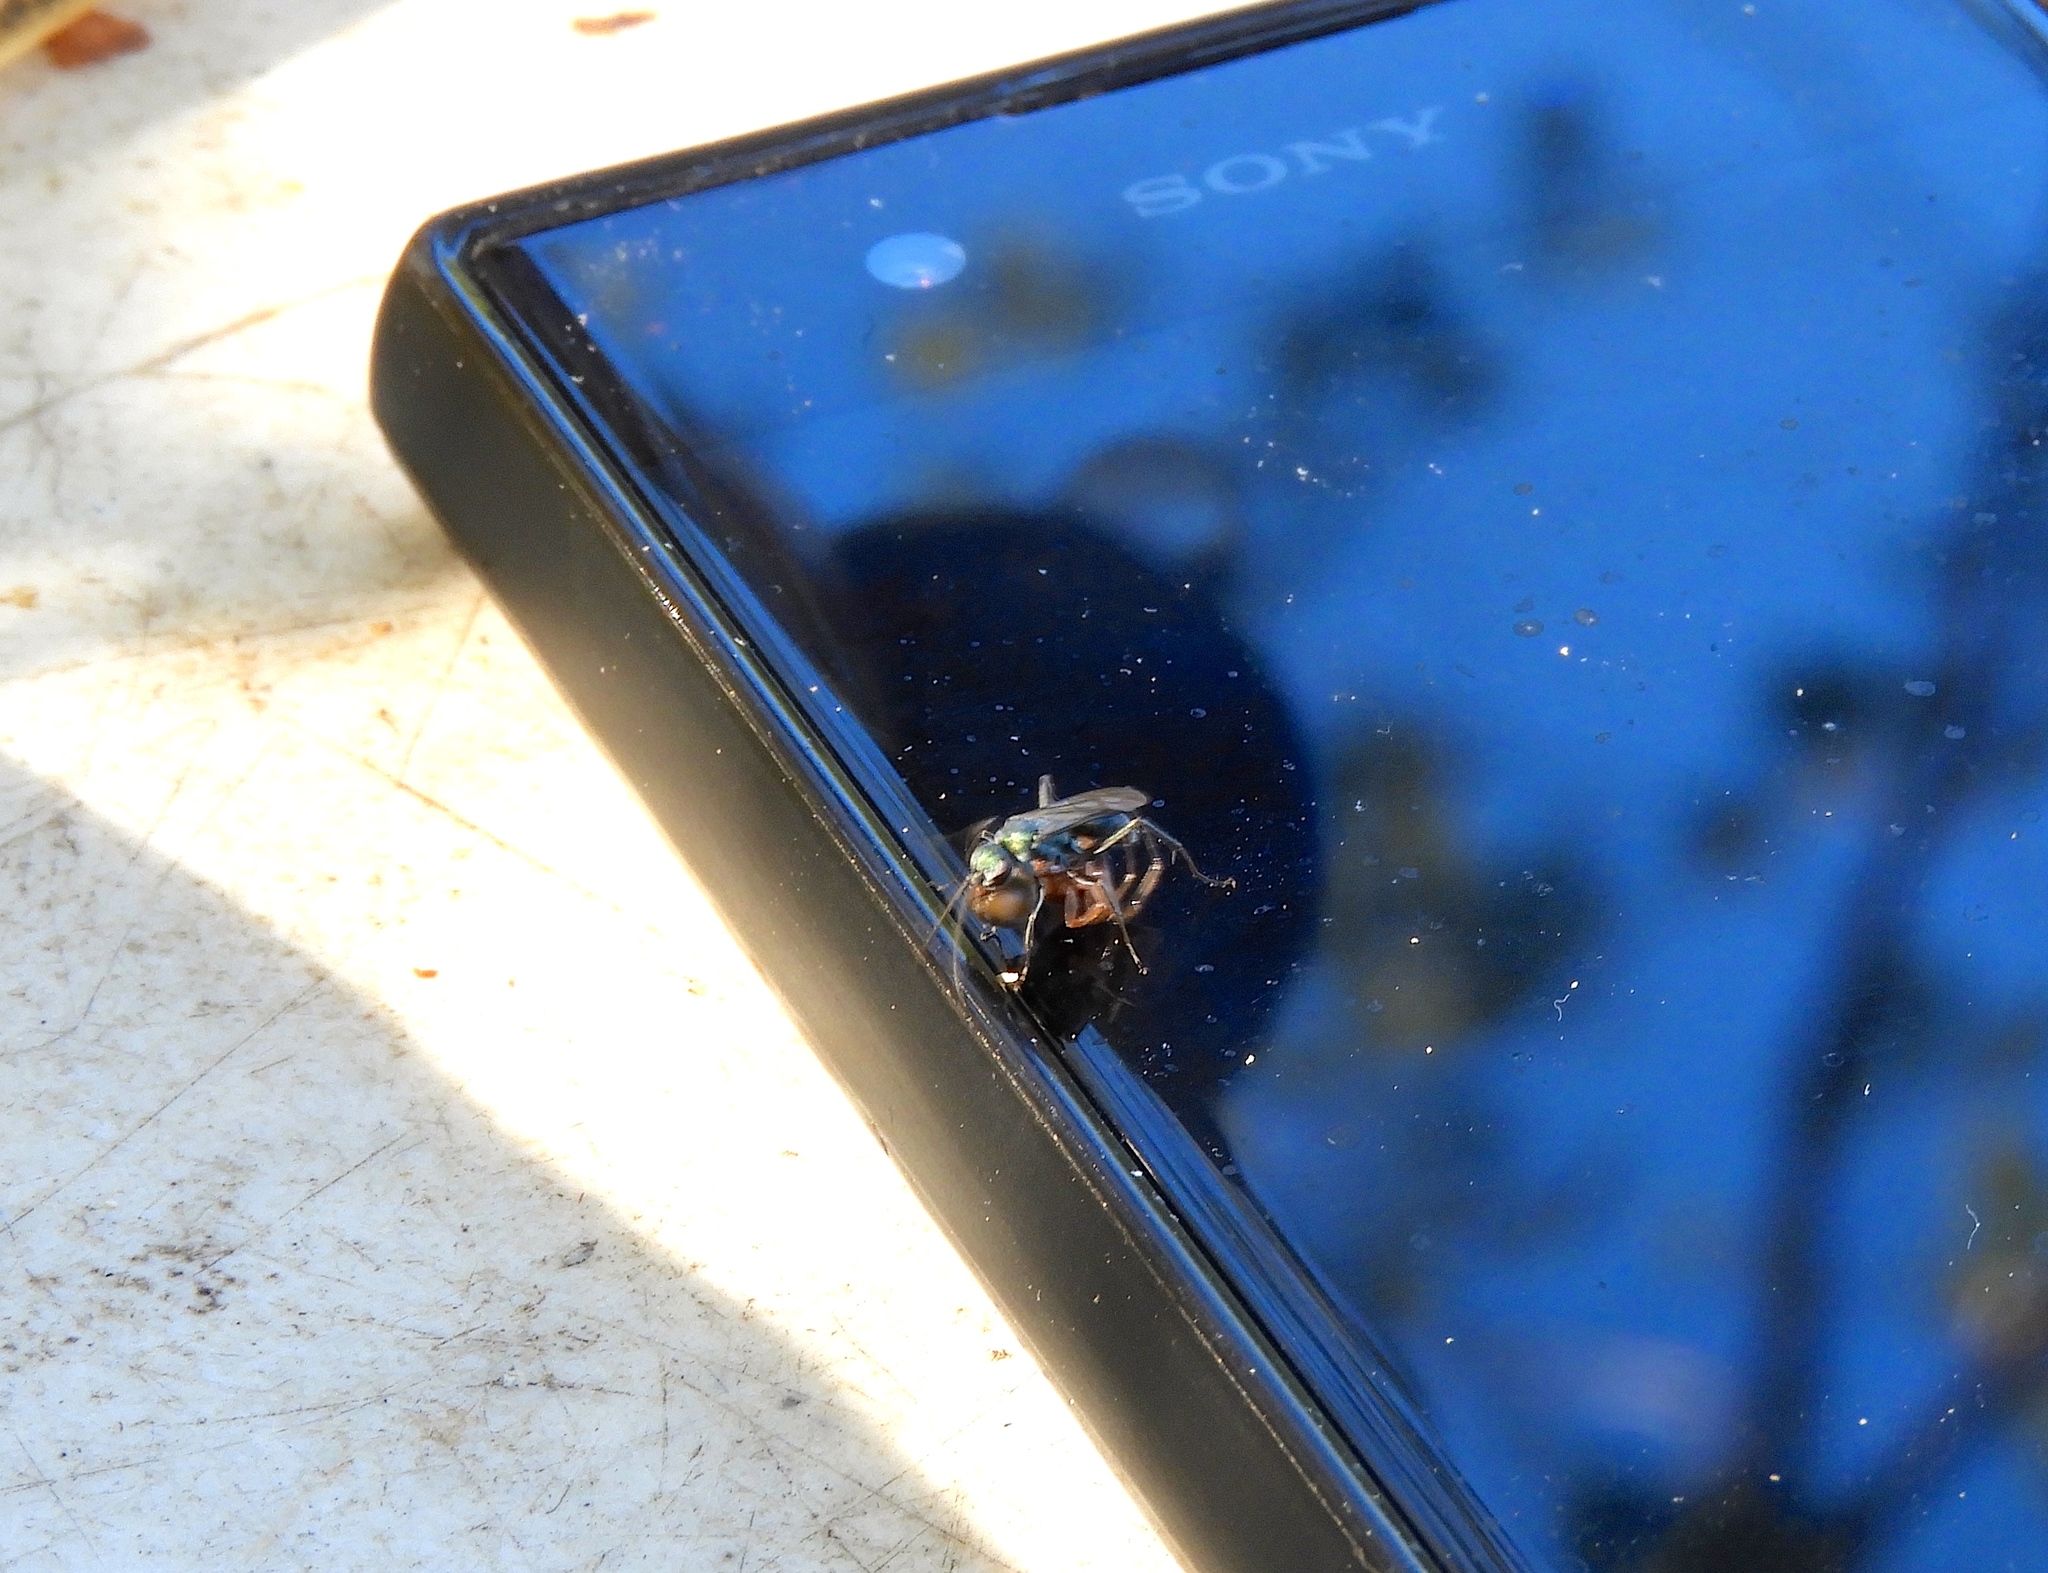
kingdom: Animalia
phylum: Arthropoda
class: Insecta
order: Hymenoptera
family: Pompilidae
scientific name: Pompilidae
